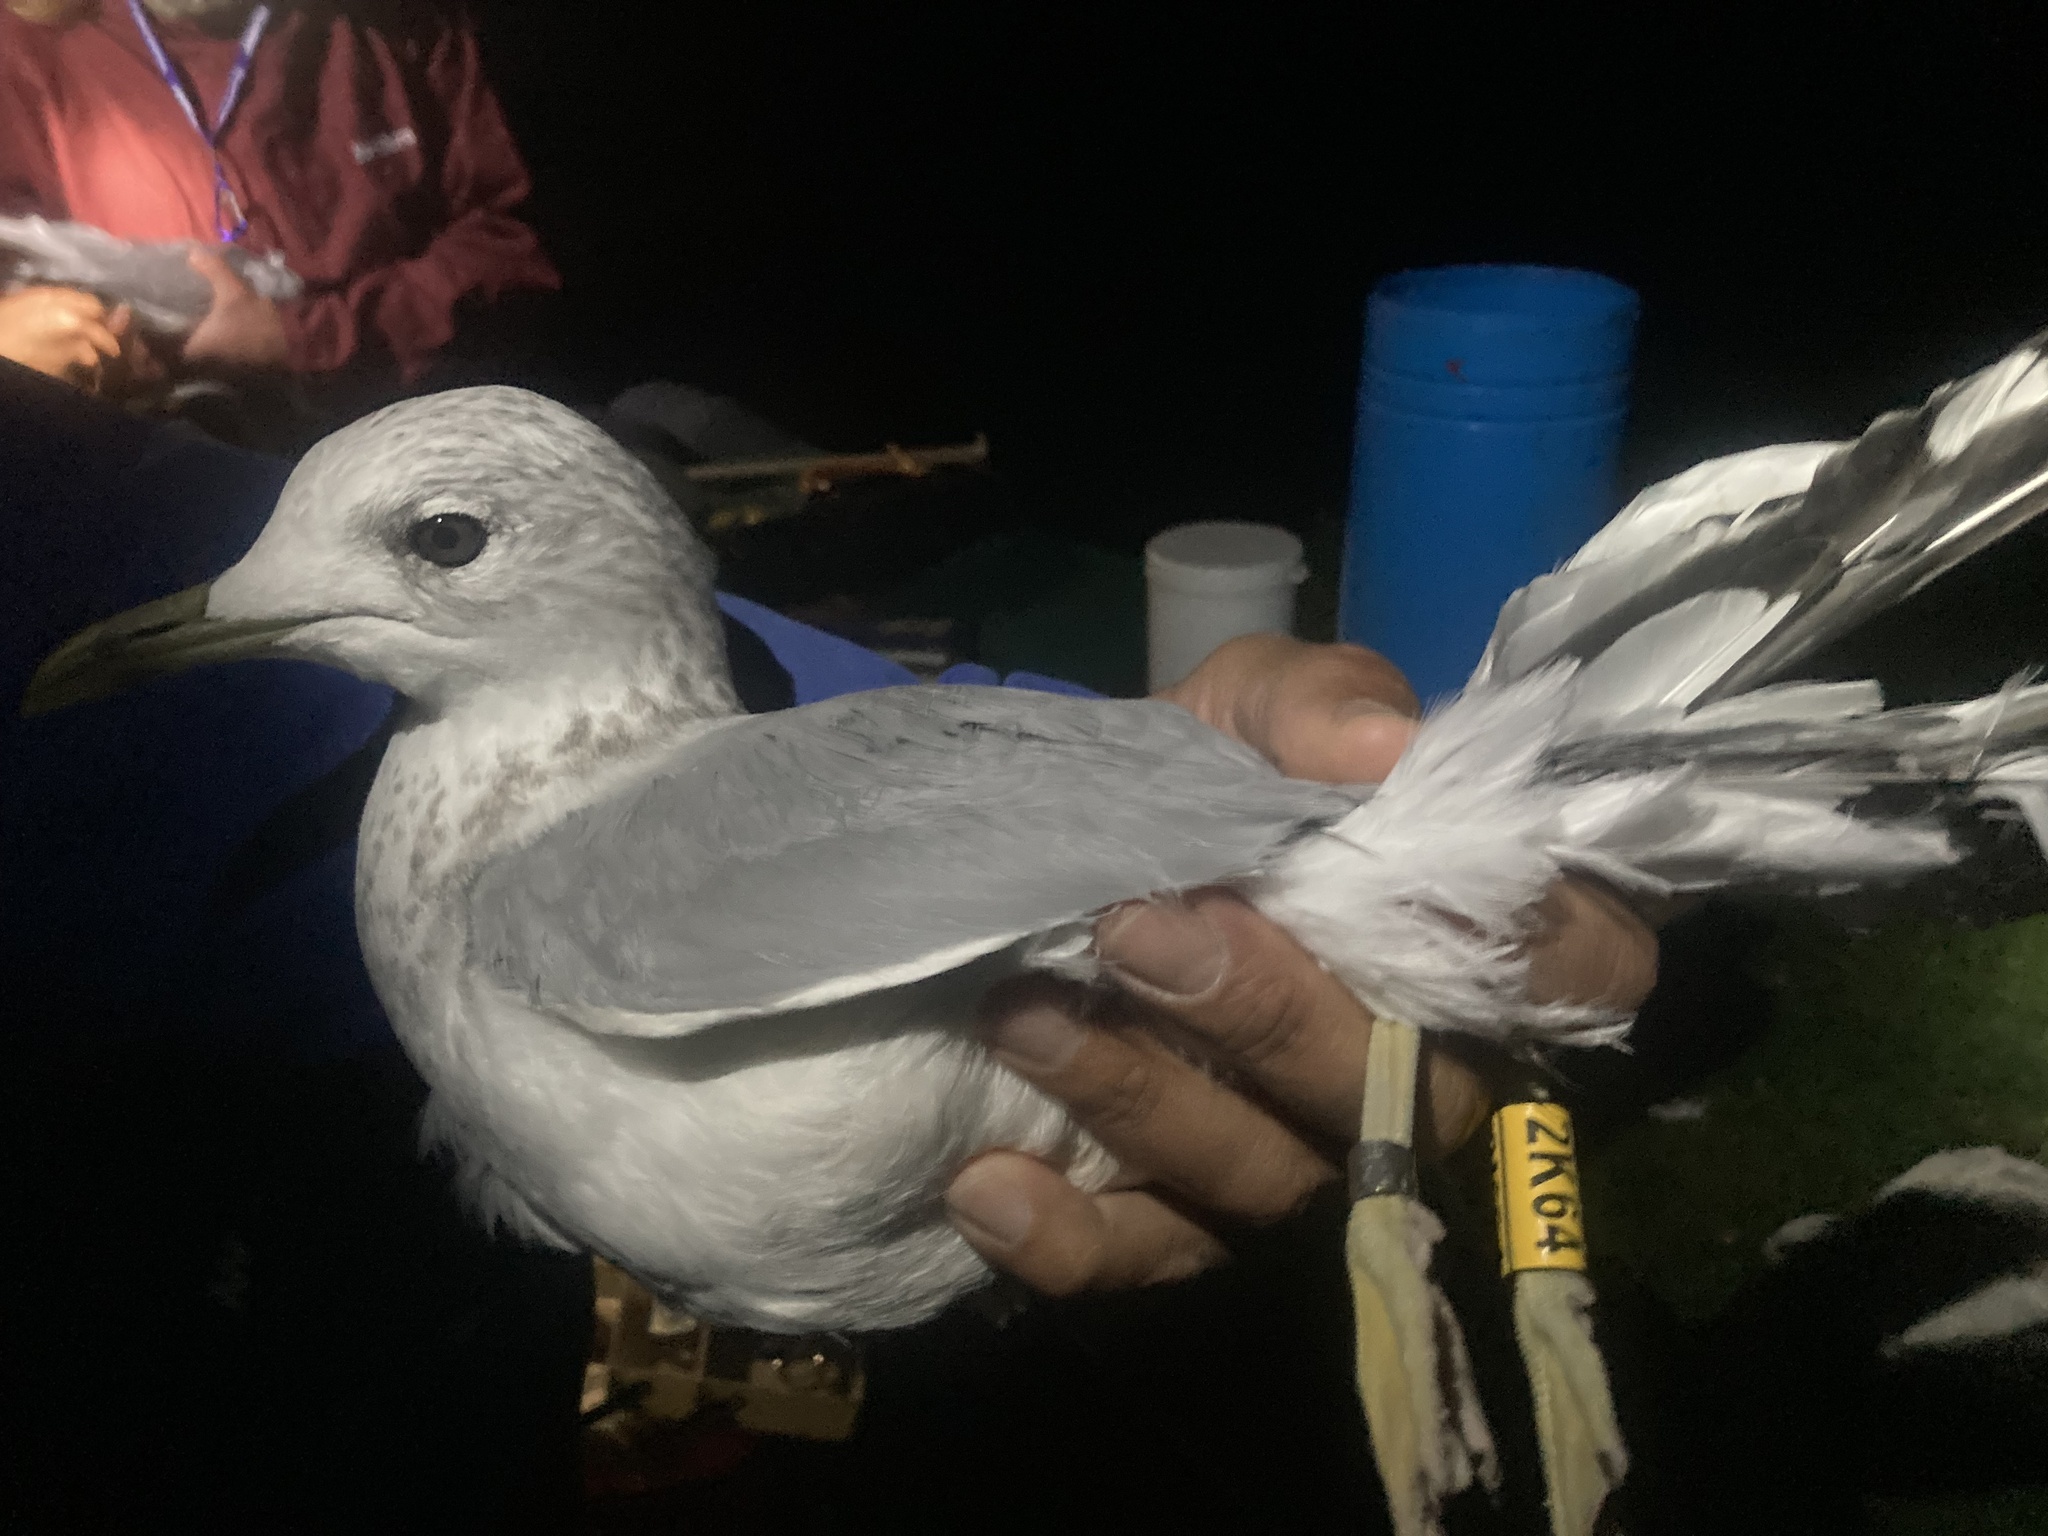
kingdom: Animalia
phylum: Chordata
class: Aves
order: Charadriiformes
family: Laridae
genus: Larus
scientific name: Larus canus
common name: Mew gull
